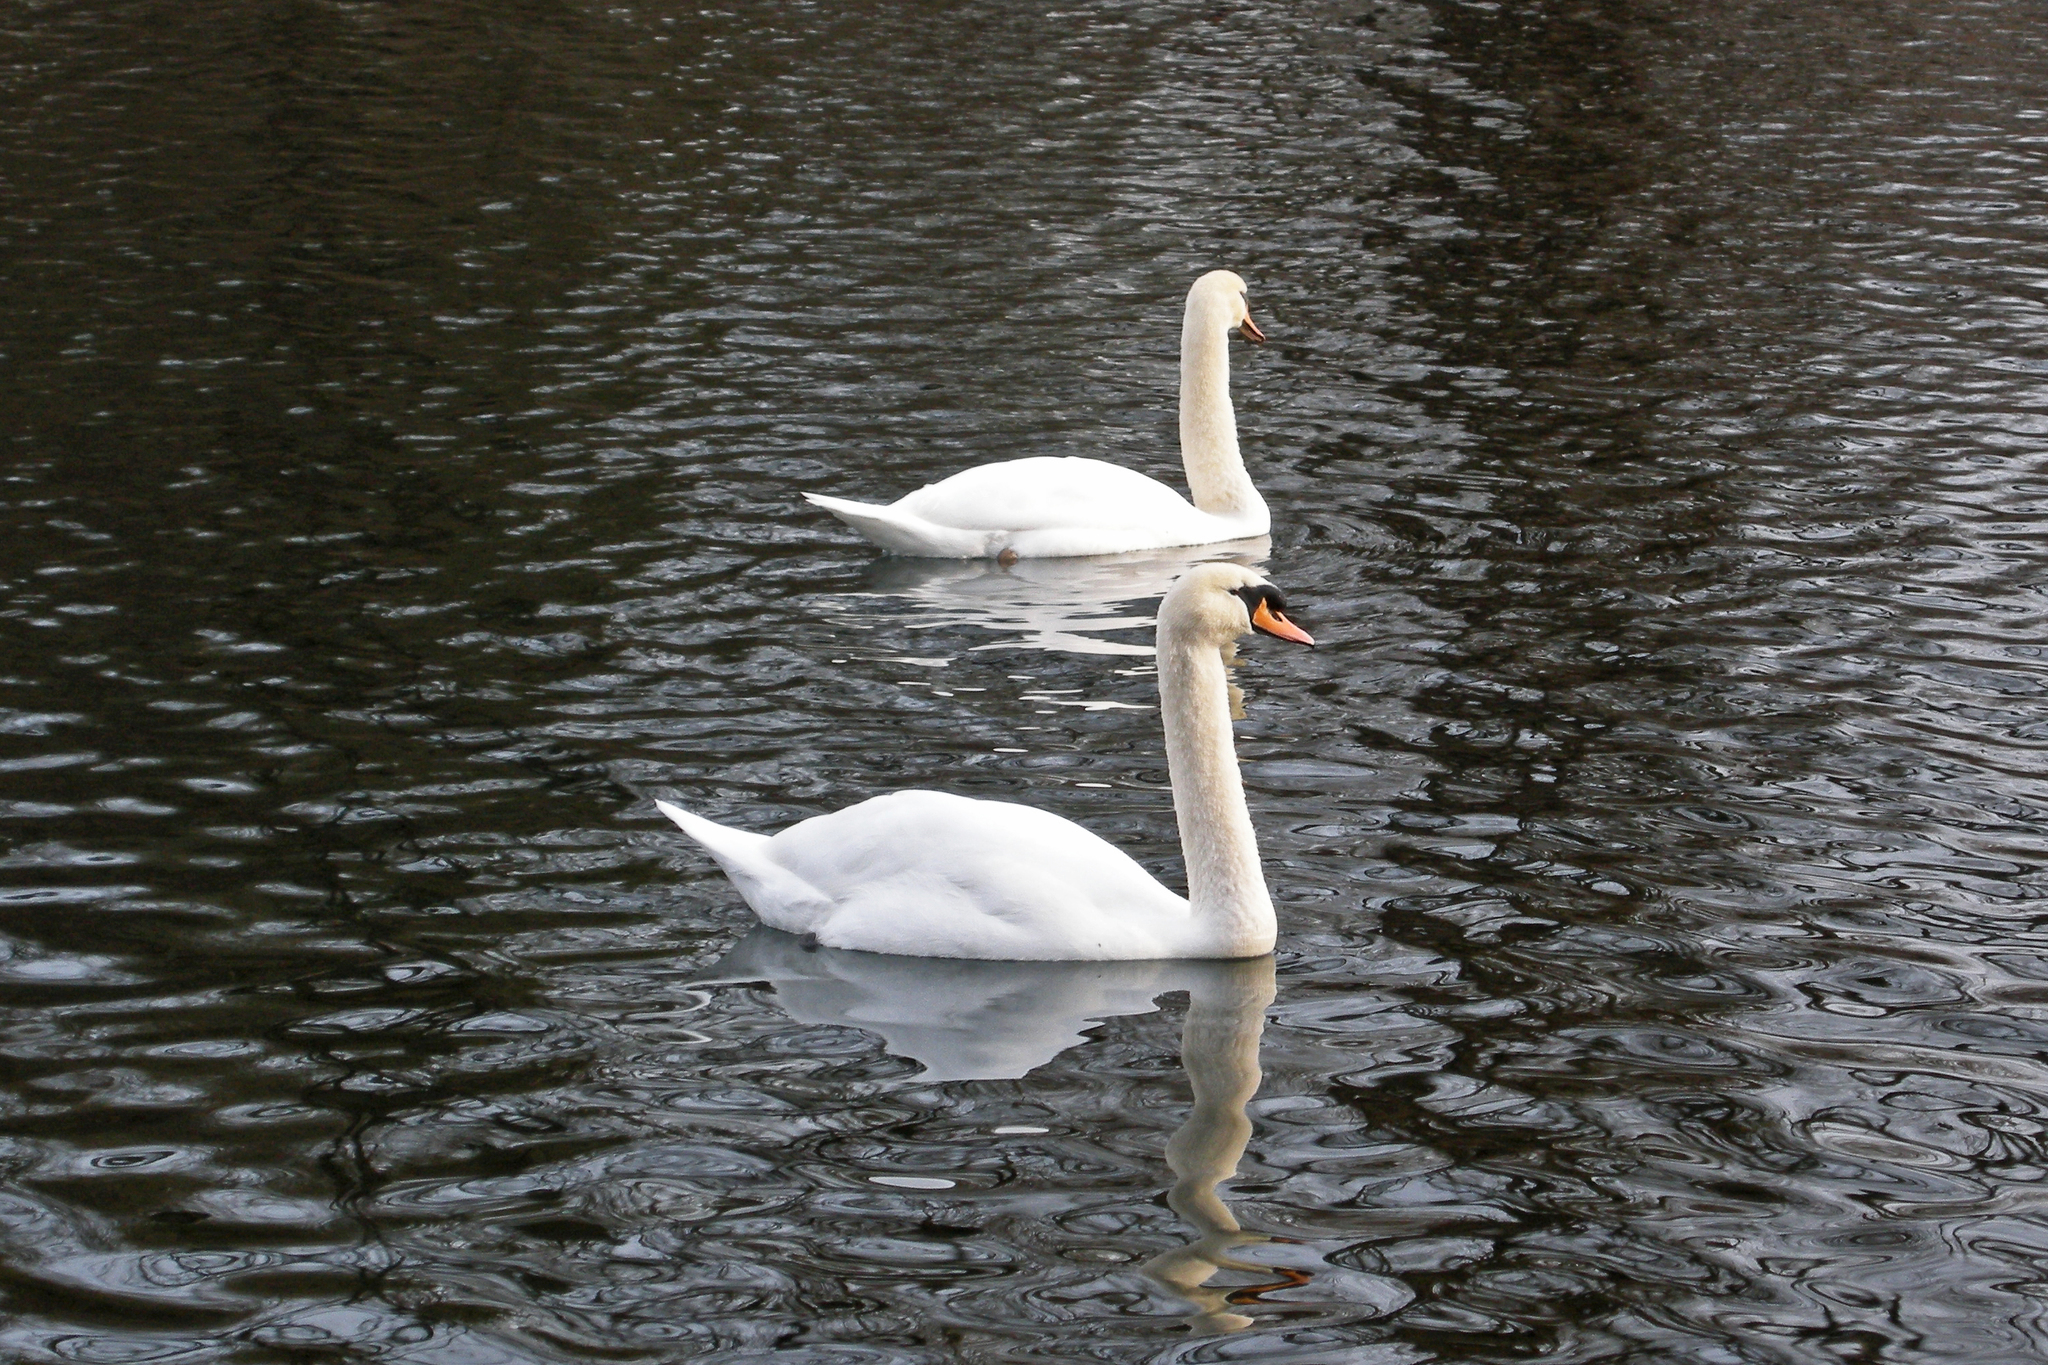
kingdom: Animalia
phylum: Chordata
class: Aves
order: Anseriformes
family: Anatidae
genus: Cygnus
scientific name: Cygnus olor
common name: Mute swan
